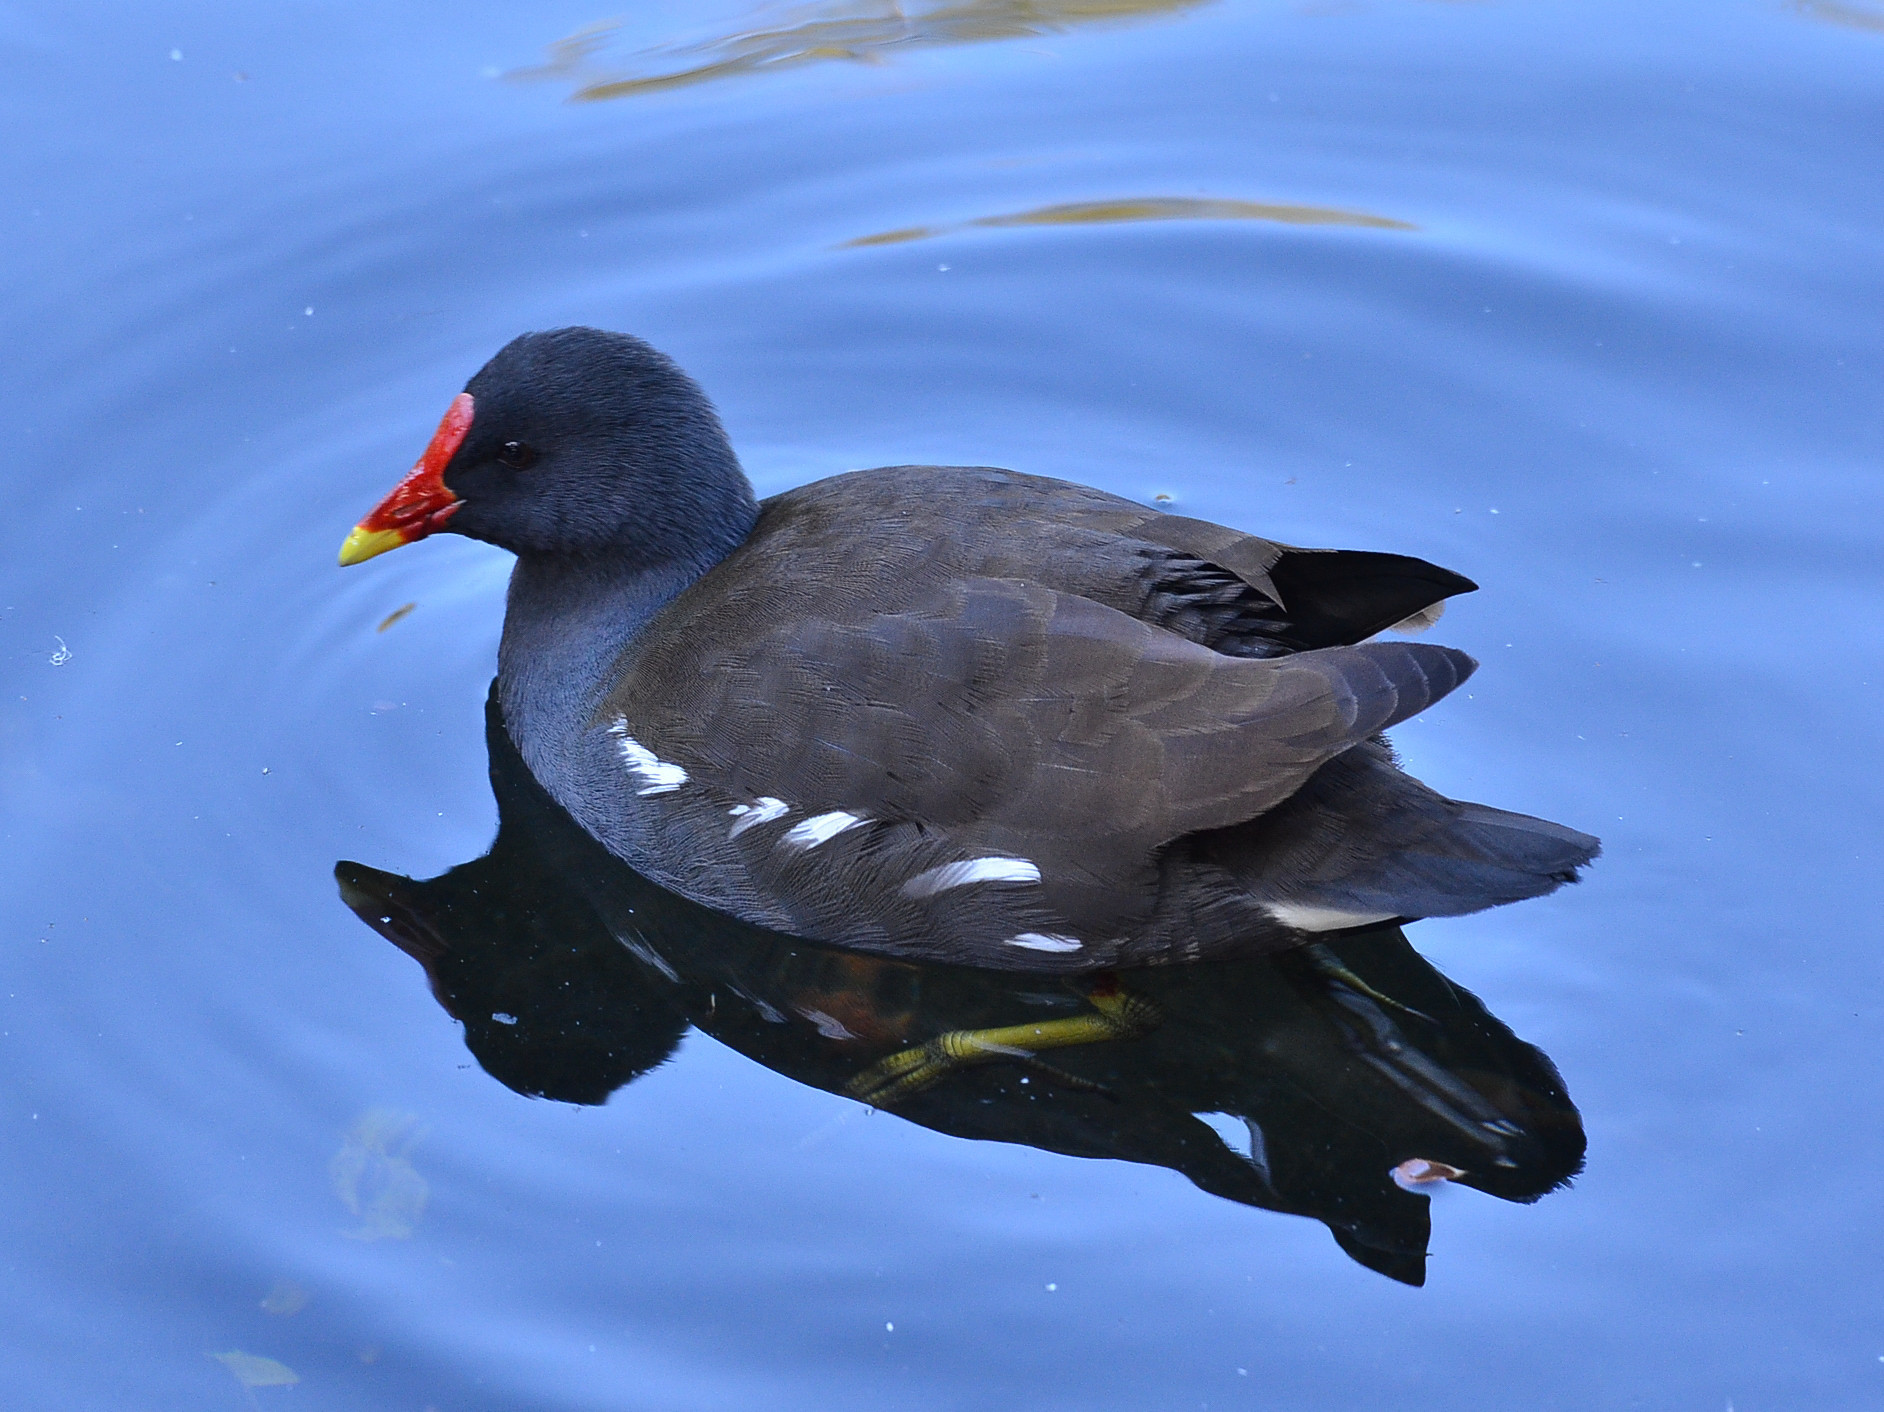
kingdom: Animalia
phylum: Chordata
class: Aves
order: Gruiformes
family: Rallidae
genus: Gallinula
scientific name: Gallinula chloropus
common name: Common moorhen
